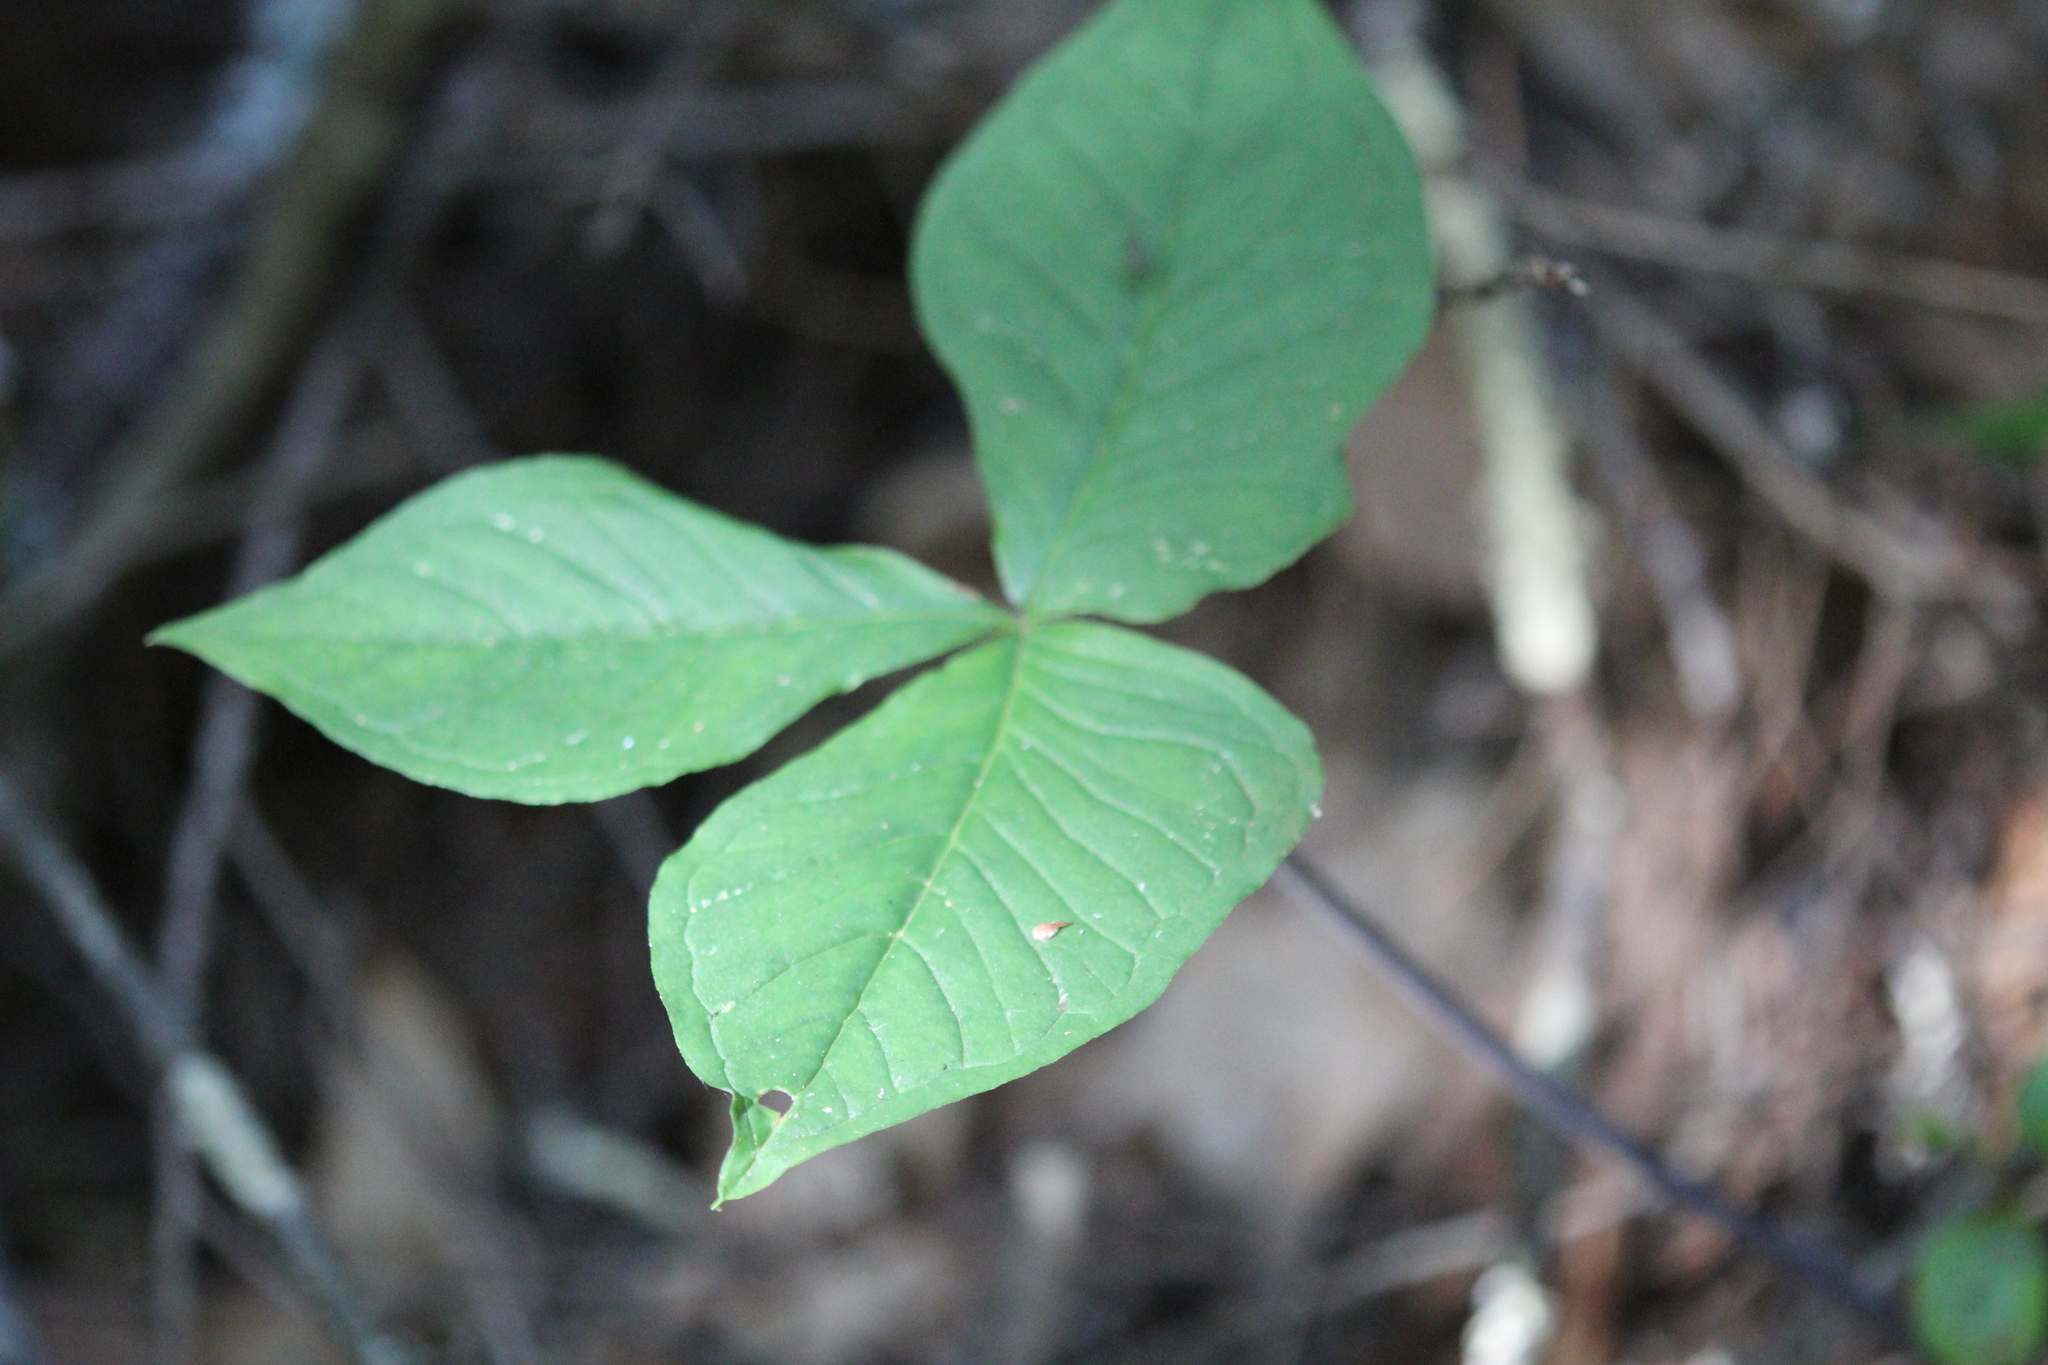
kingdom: Plantae
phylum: Tracheophyta
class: Liliopsida
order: Alismatales
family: Araceae
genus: Arisaema
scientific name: Arisaema triphyllum
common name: Jack-in-the-pulpit
